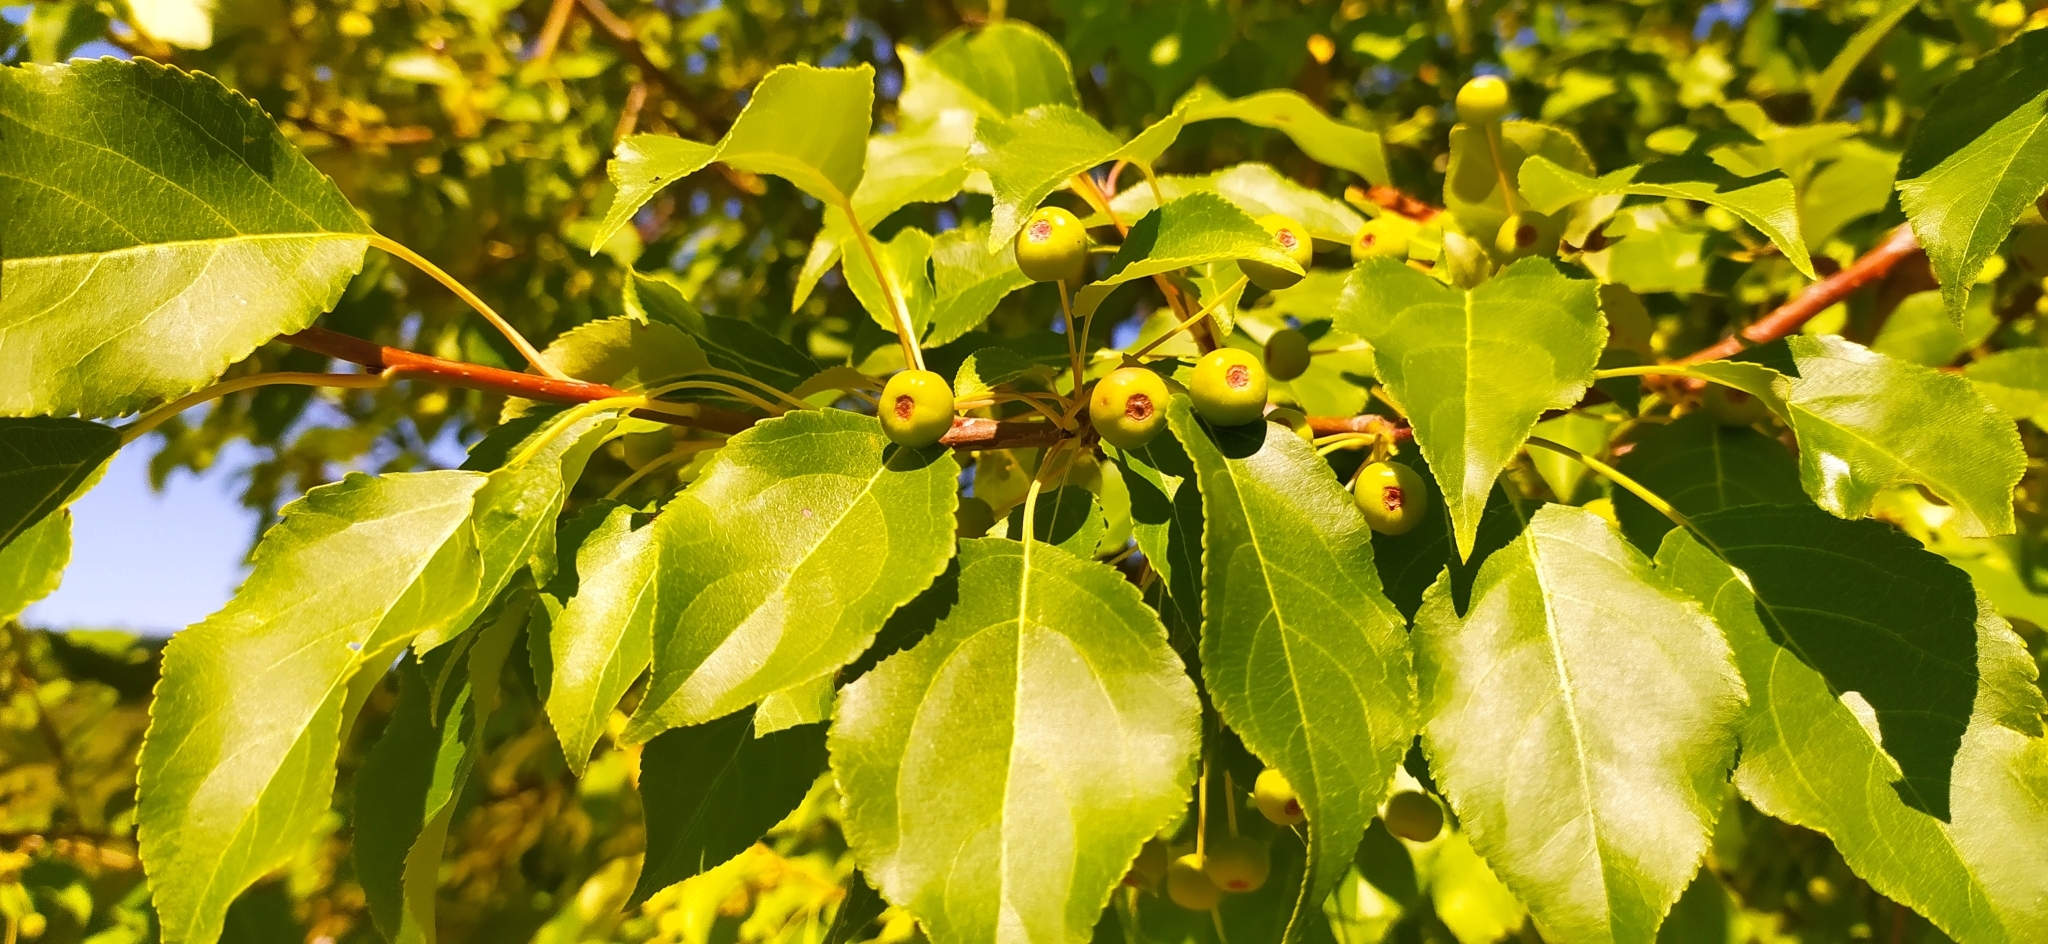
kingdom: Plantae
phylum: Tracheophyta
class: Magnoliopsida
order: Rosales
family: Rosaceae
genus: Malus
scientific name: Malus baccata
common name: Siberian crab
